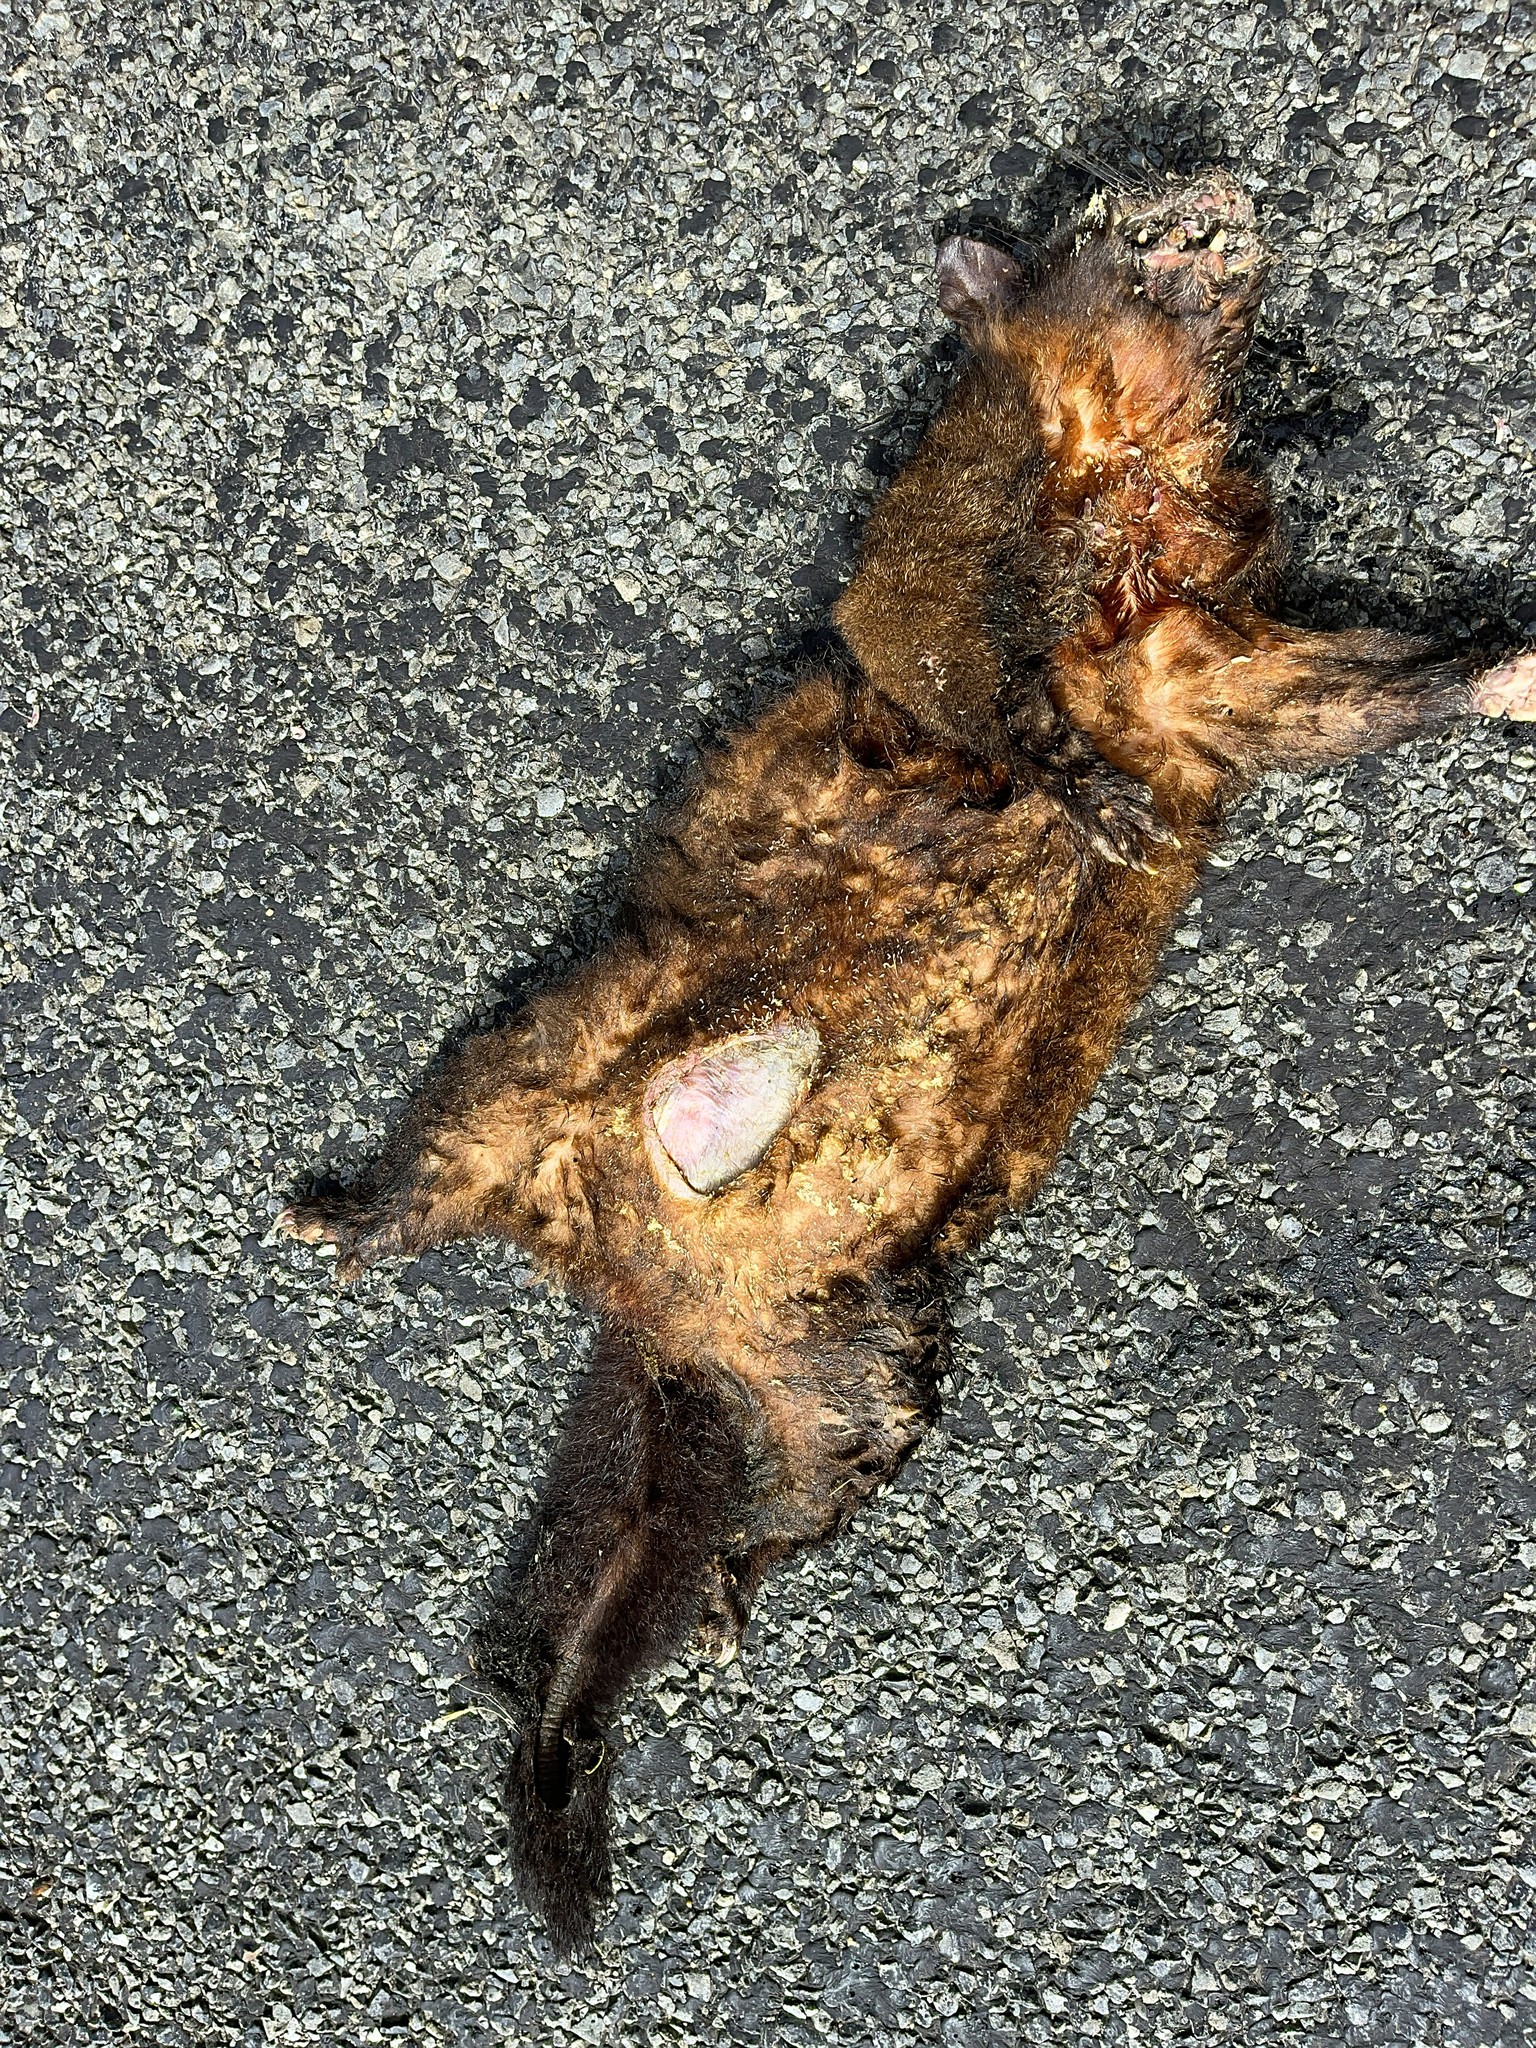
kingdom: Animalia
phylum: Chordata
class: Mammalia
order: Diprotodontia
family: Phalangeridae
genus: Trichosurus
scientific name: Trichosurus vulpecula
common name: Common brushtail
